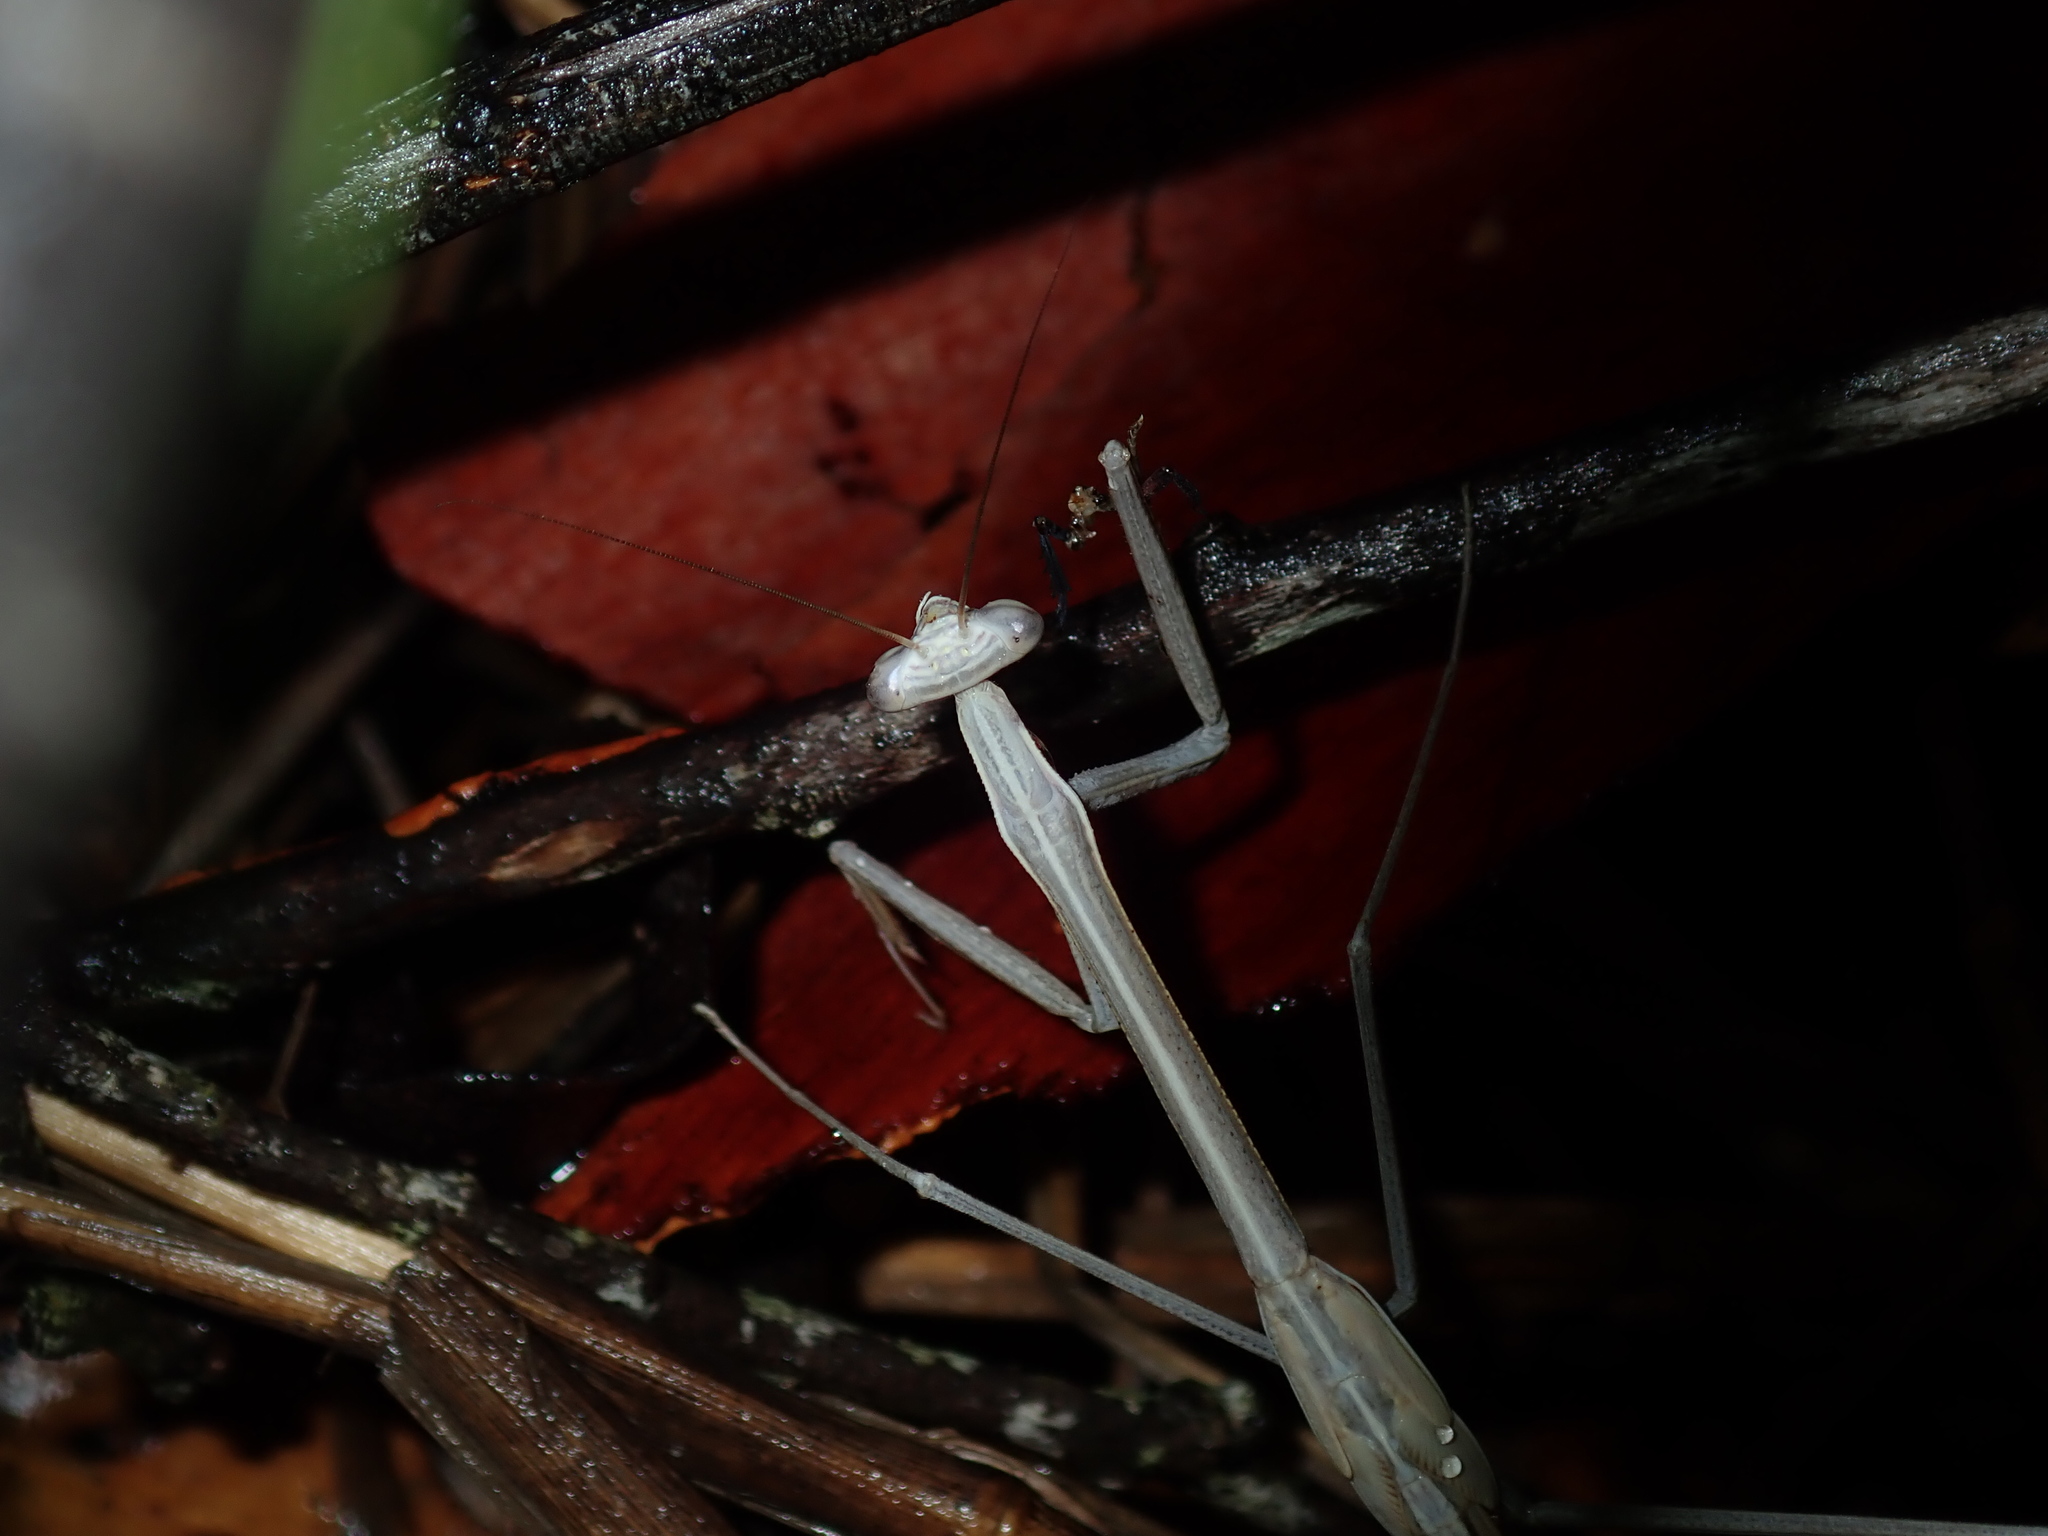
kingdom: Animalia
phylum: Arthropoda
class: Insecta
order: Mantodea
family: Mantidae
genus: Archimantis
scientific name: Archimantis brunneriana
